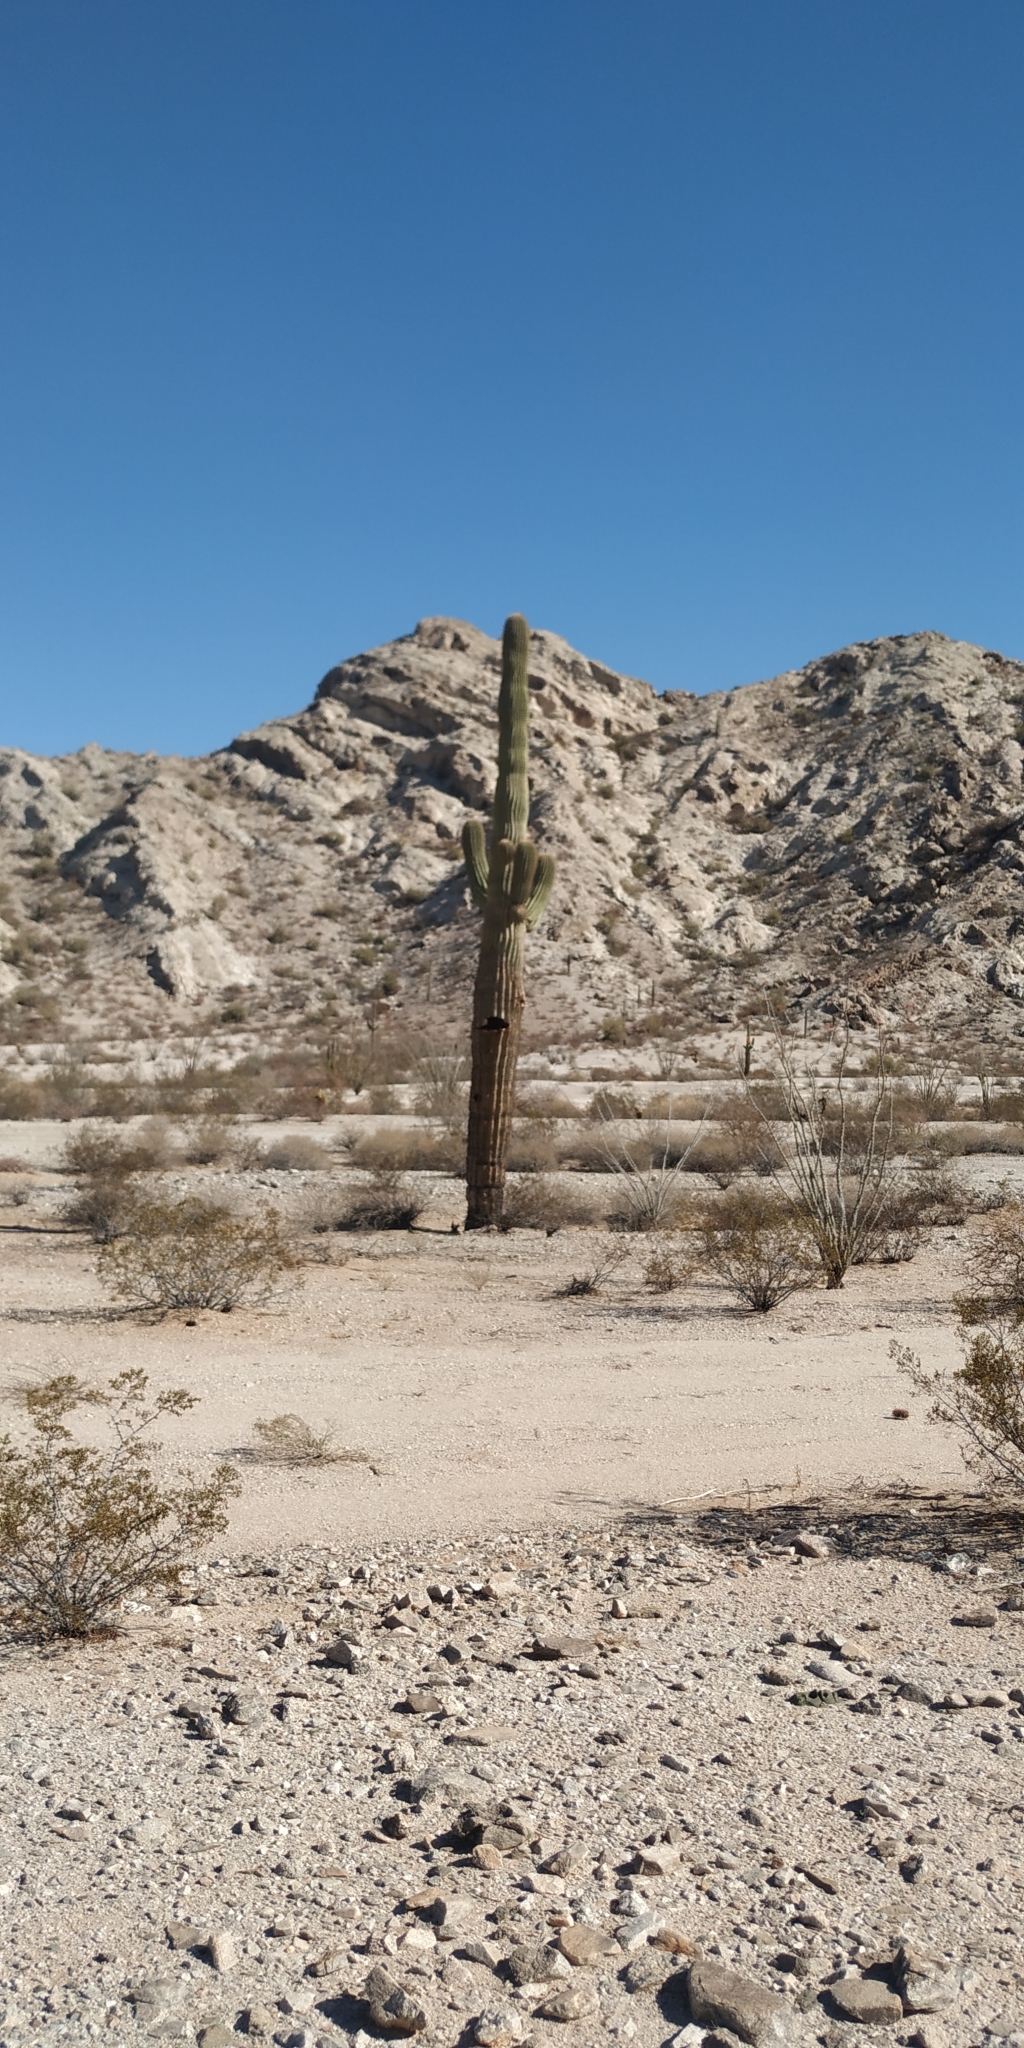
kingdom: Plantae
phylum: Tracheophyta
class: Magnoliopsida
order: Caryophyllales
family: Cactaceae
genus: Carnegiea
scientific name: Carnegiea gigantea
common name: Saguaro
